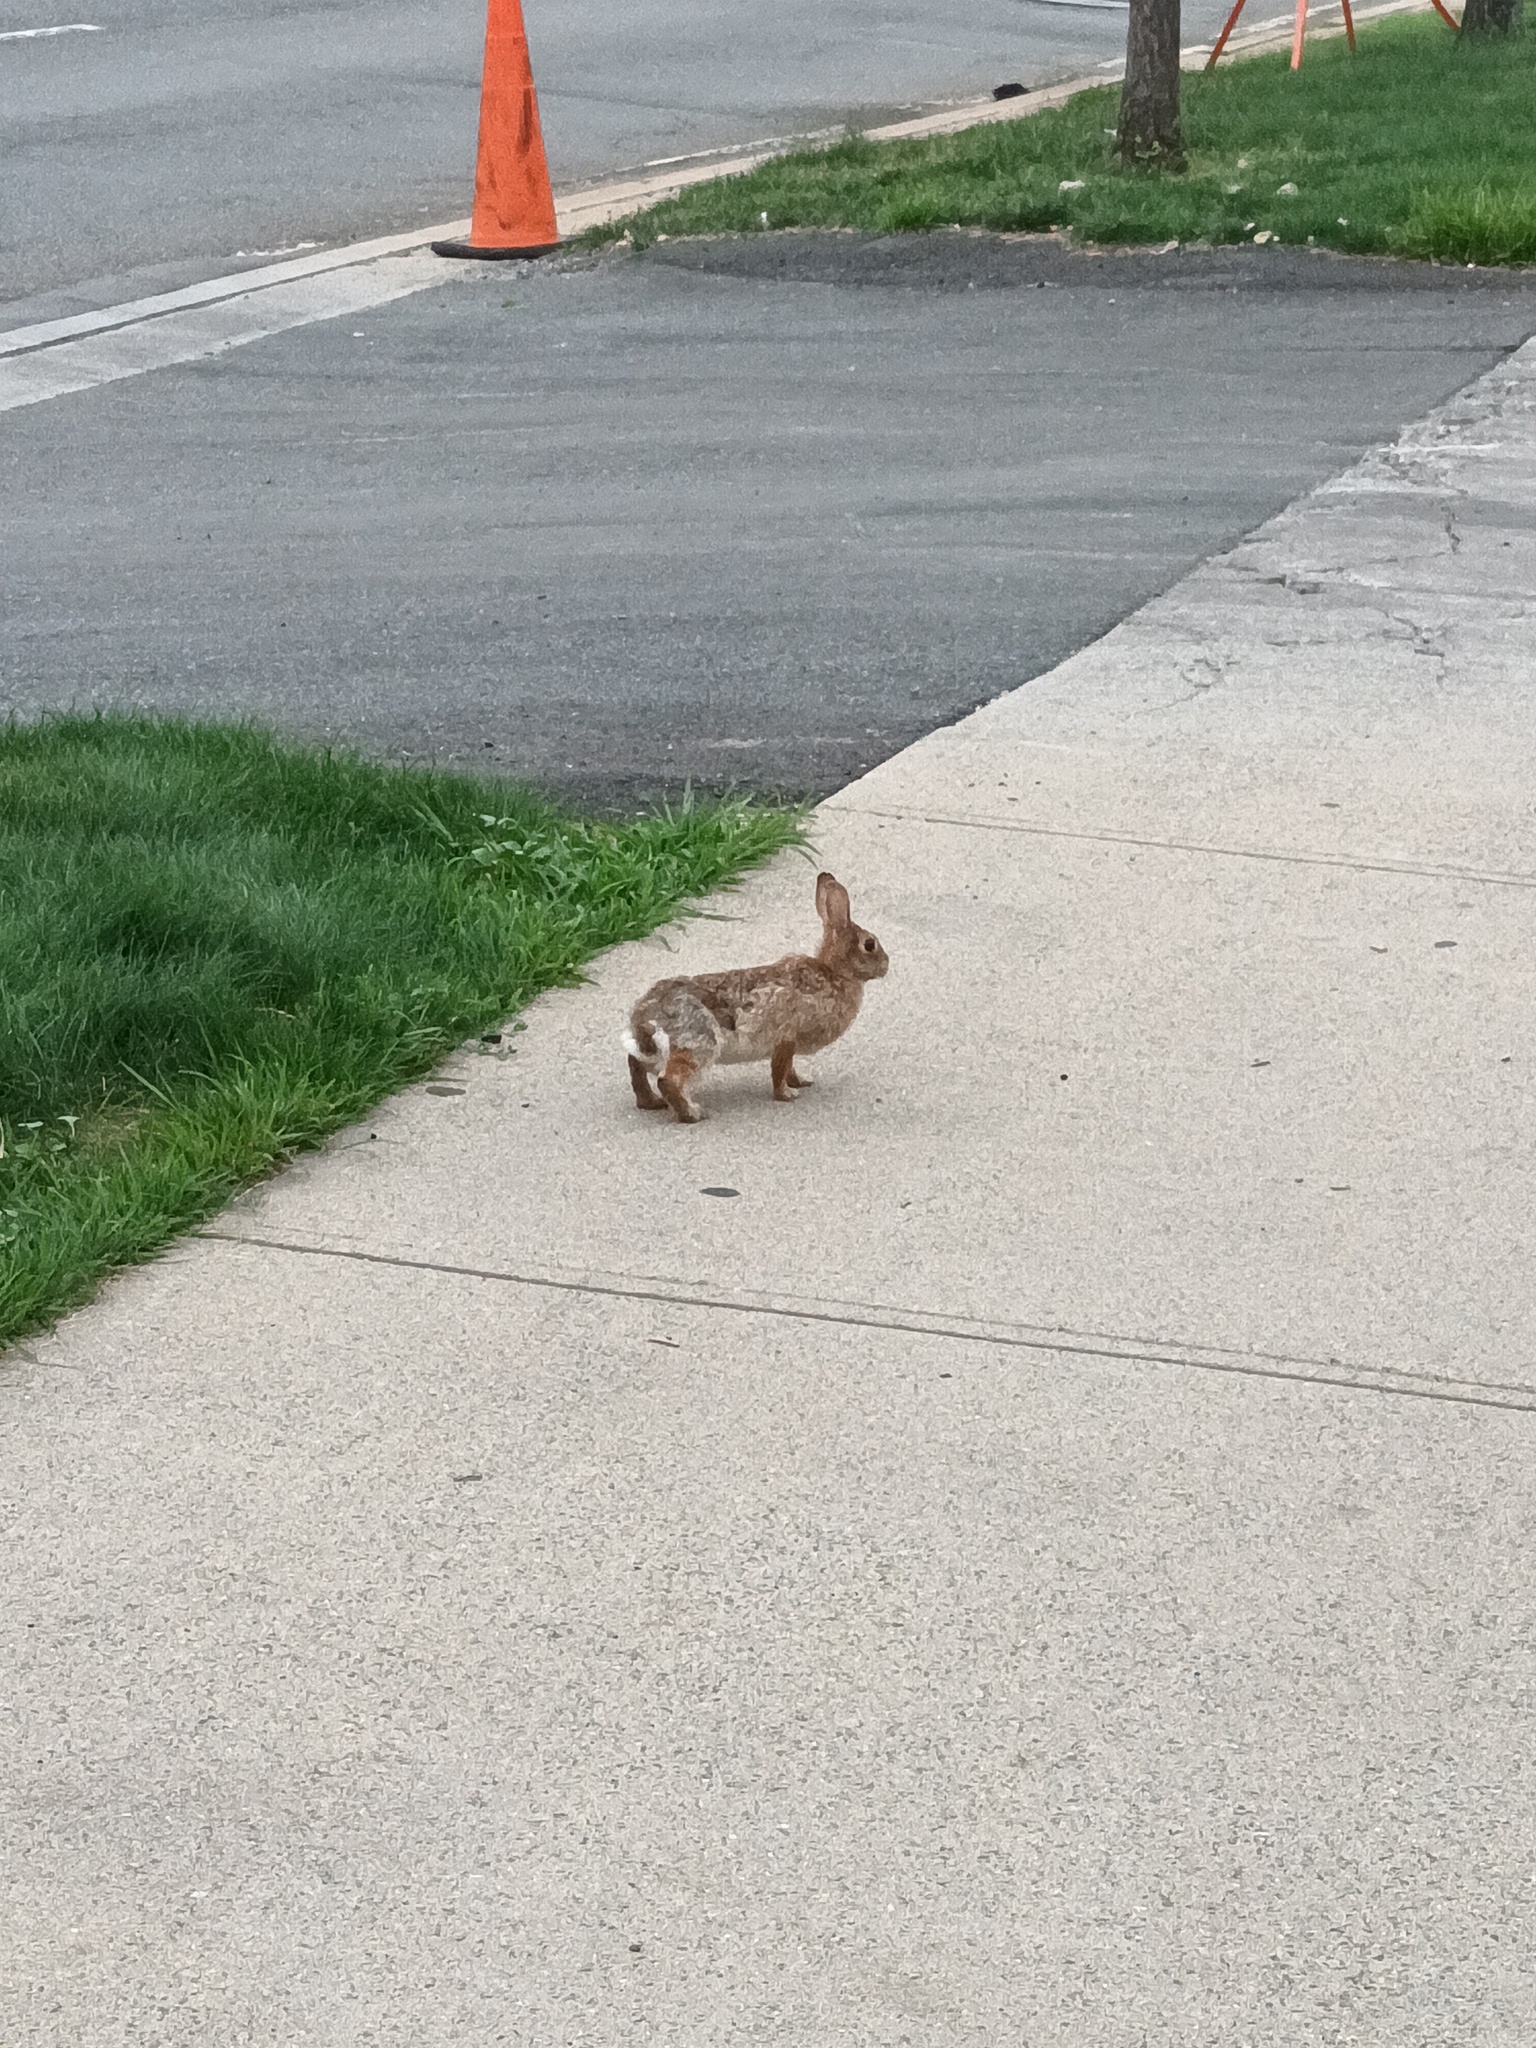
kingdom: Animalia
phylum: Chordata
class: Mammalia
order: Lagomorpha
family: Leporidae
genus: Sylvilagus
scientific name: Sylvilagus floridanus
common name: Eastern cottontail
